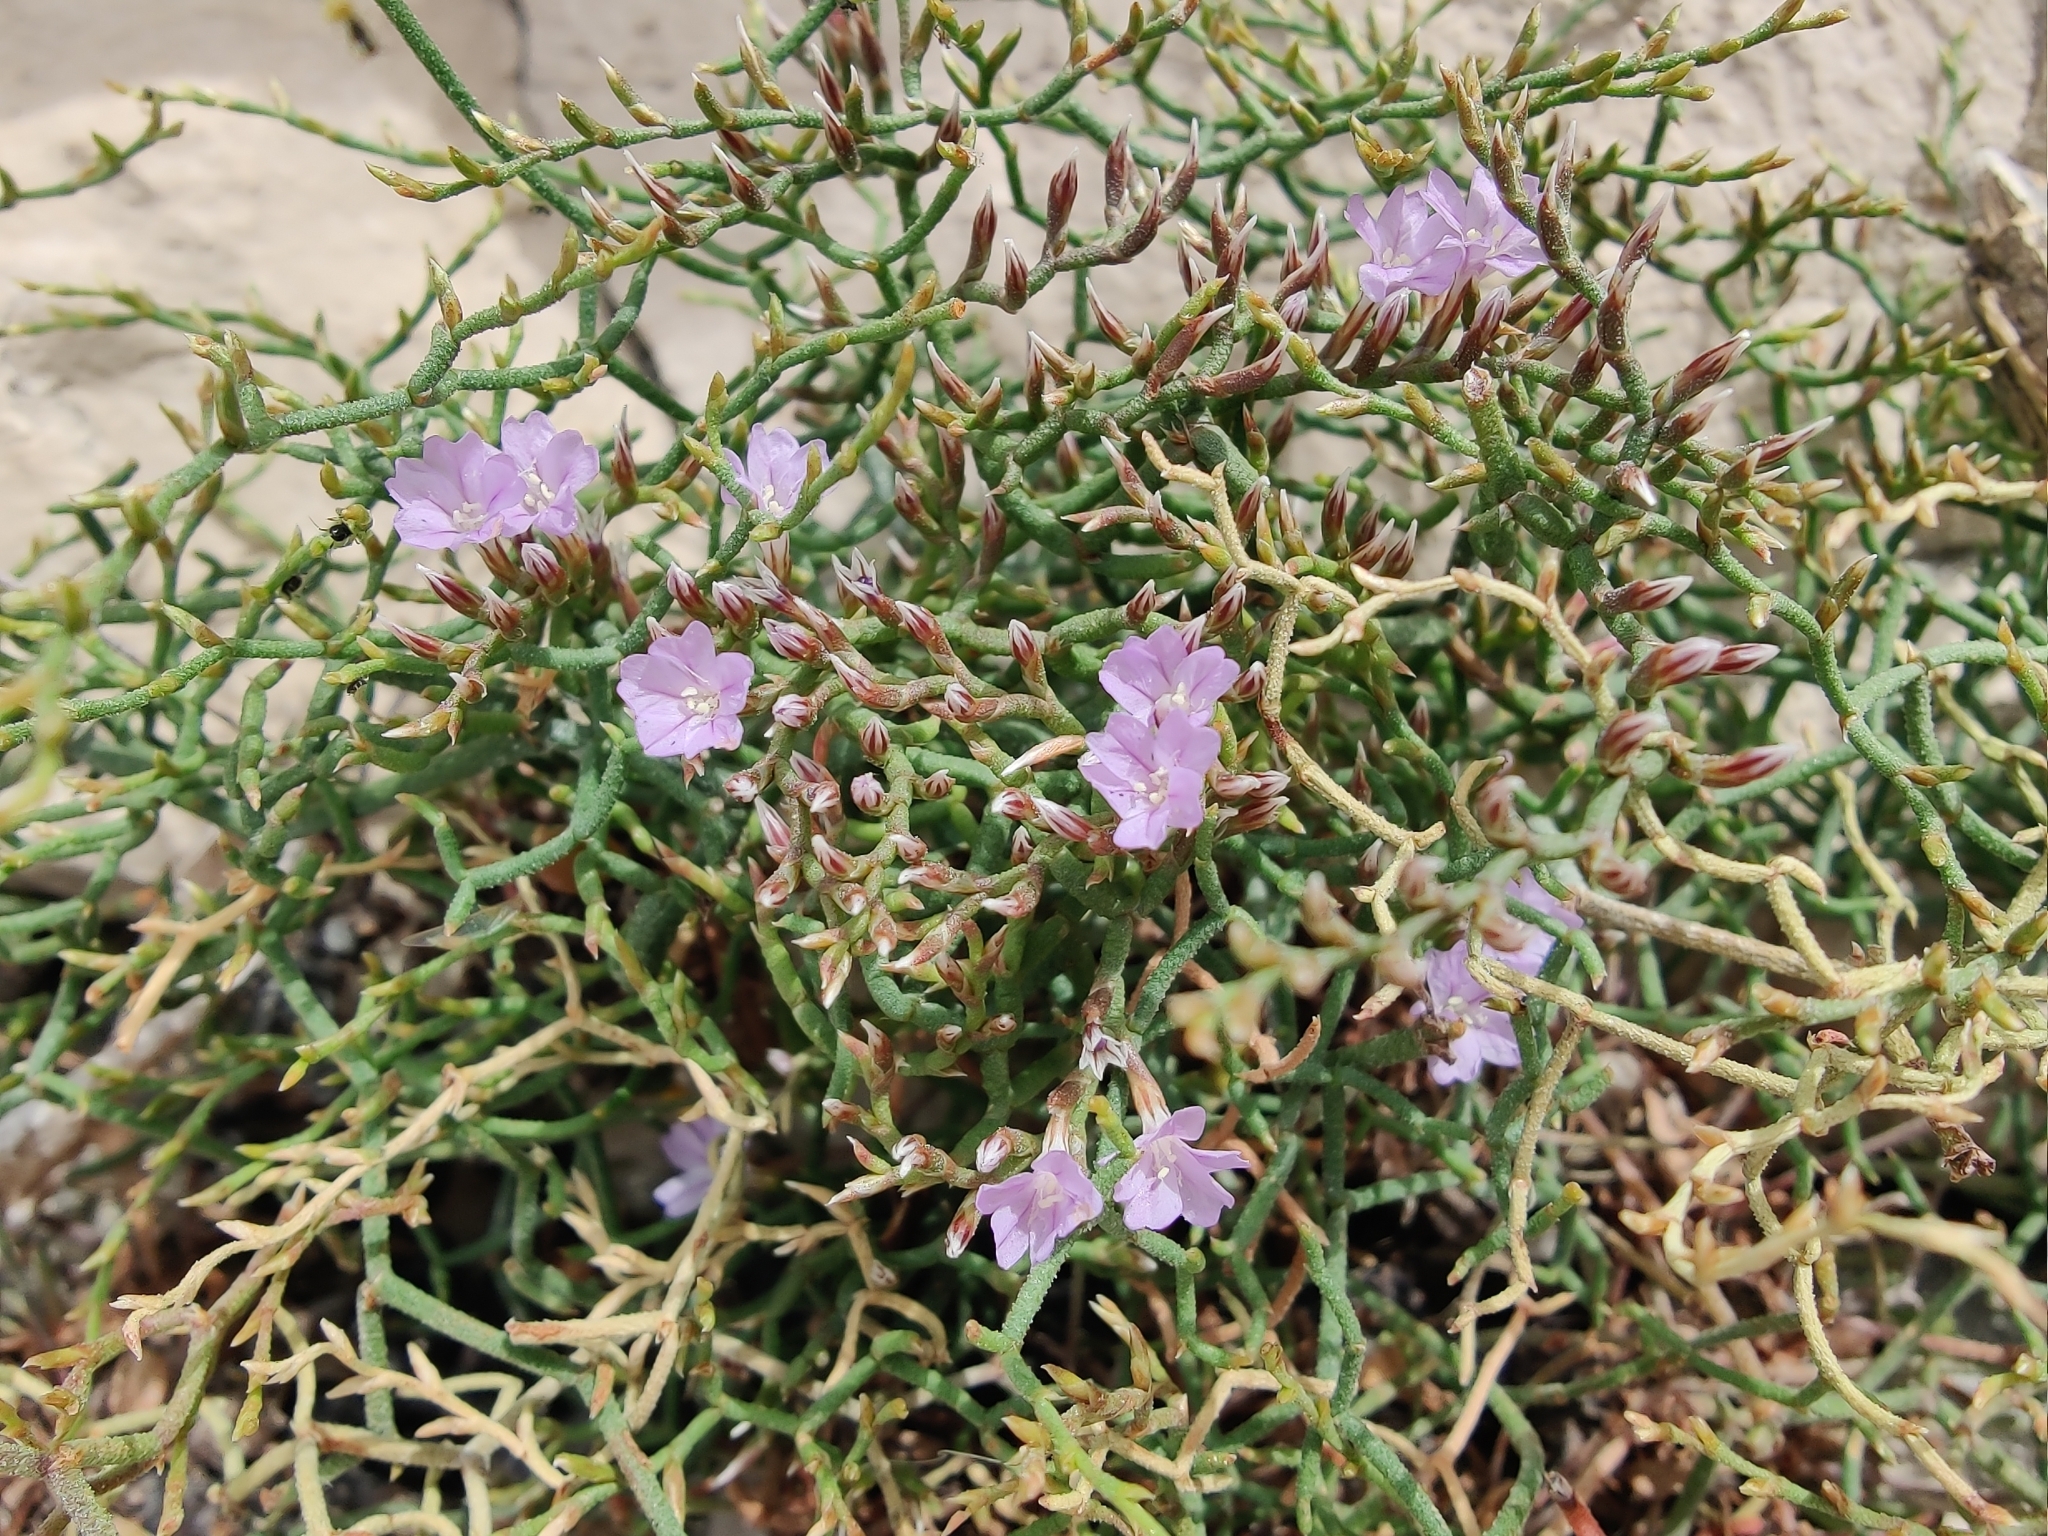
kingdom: Plantae
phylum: Tracheophyta
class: Magnoliopsida
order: Caryophyllales
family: Plumbaginaceae
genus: Limonium
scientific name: Limonium cancellatum
